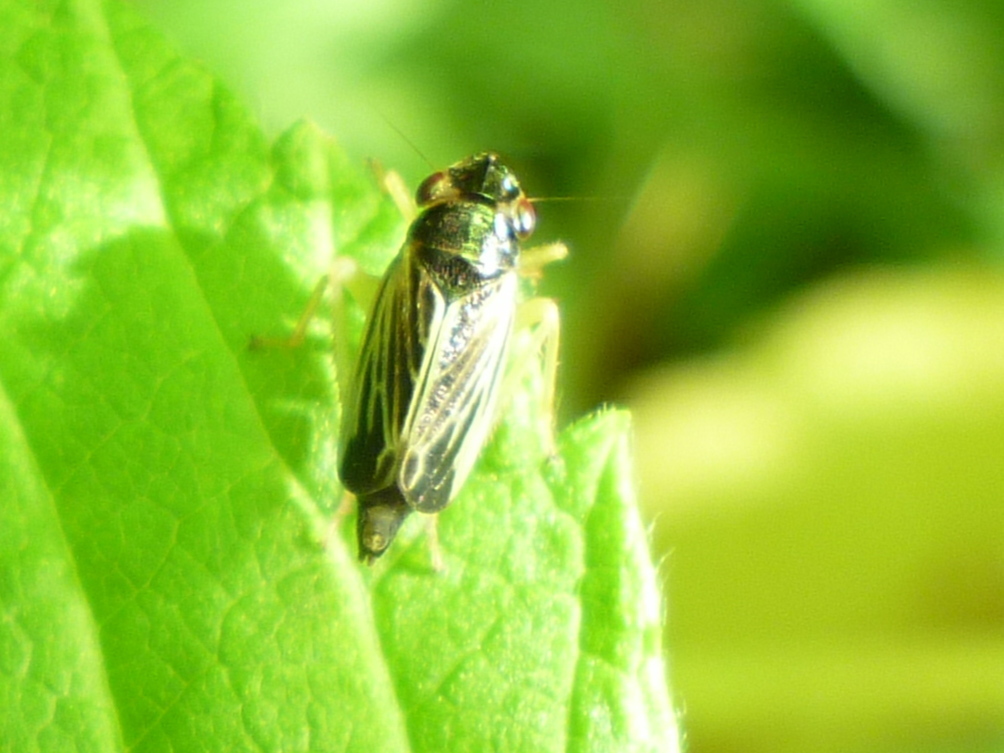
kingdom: Animalia
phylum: Arthropoda
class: Insecta
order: Hemiptera
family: Cicadellidae
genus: Evacanthus
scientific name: Evacanthus acuminatus
